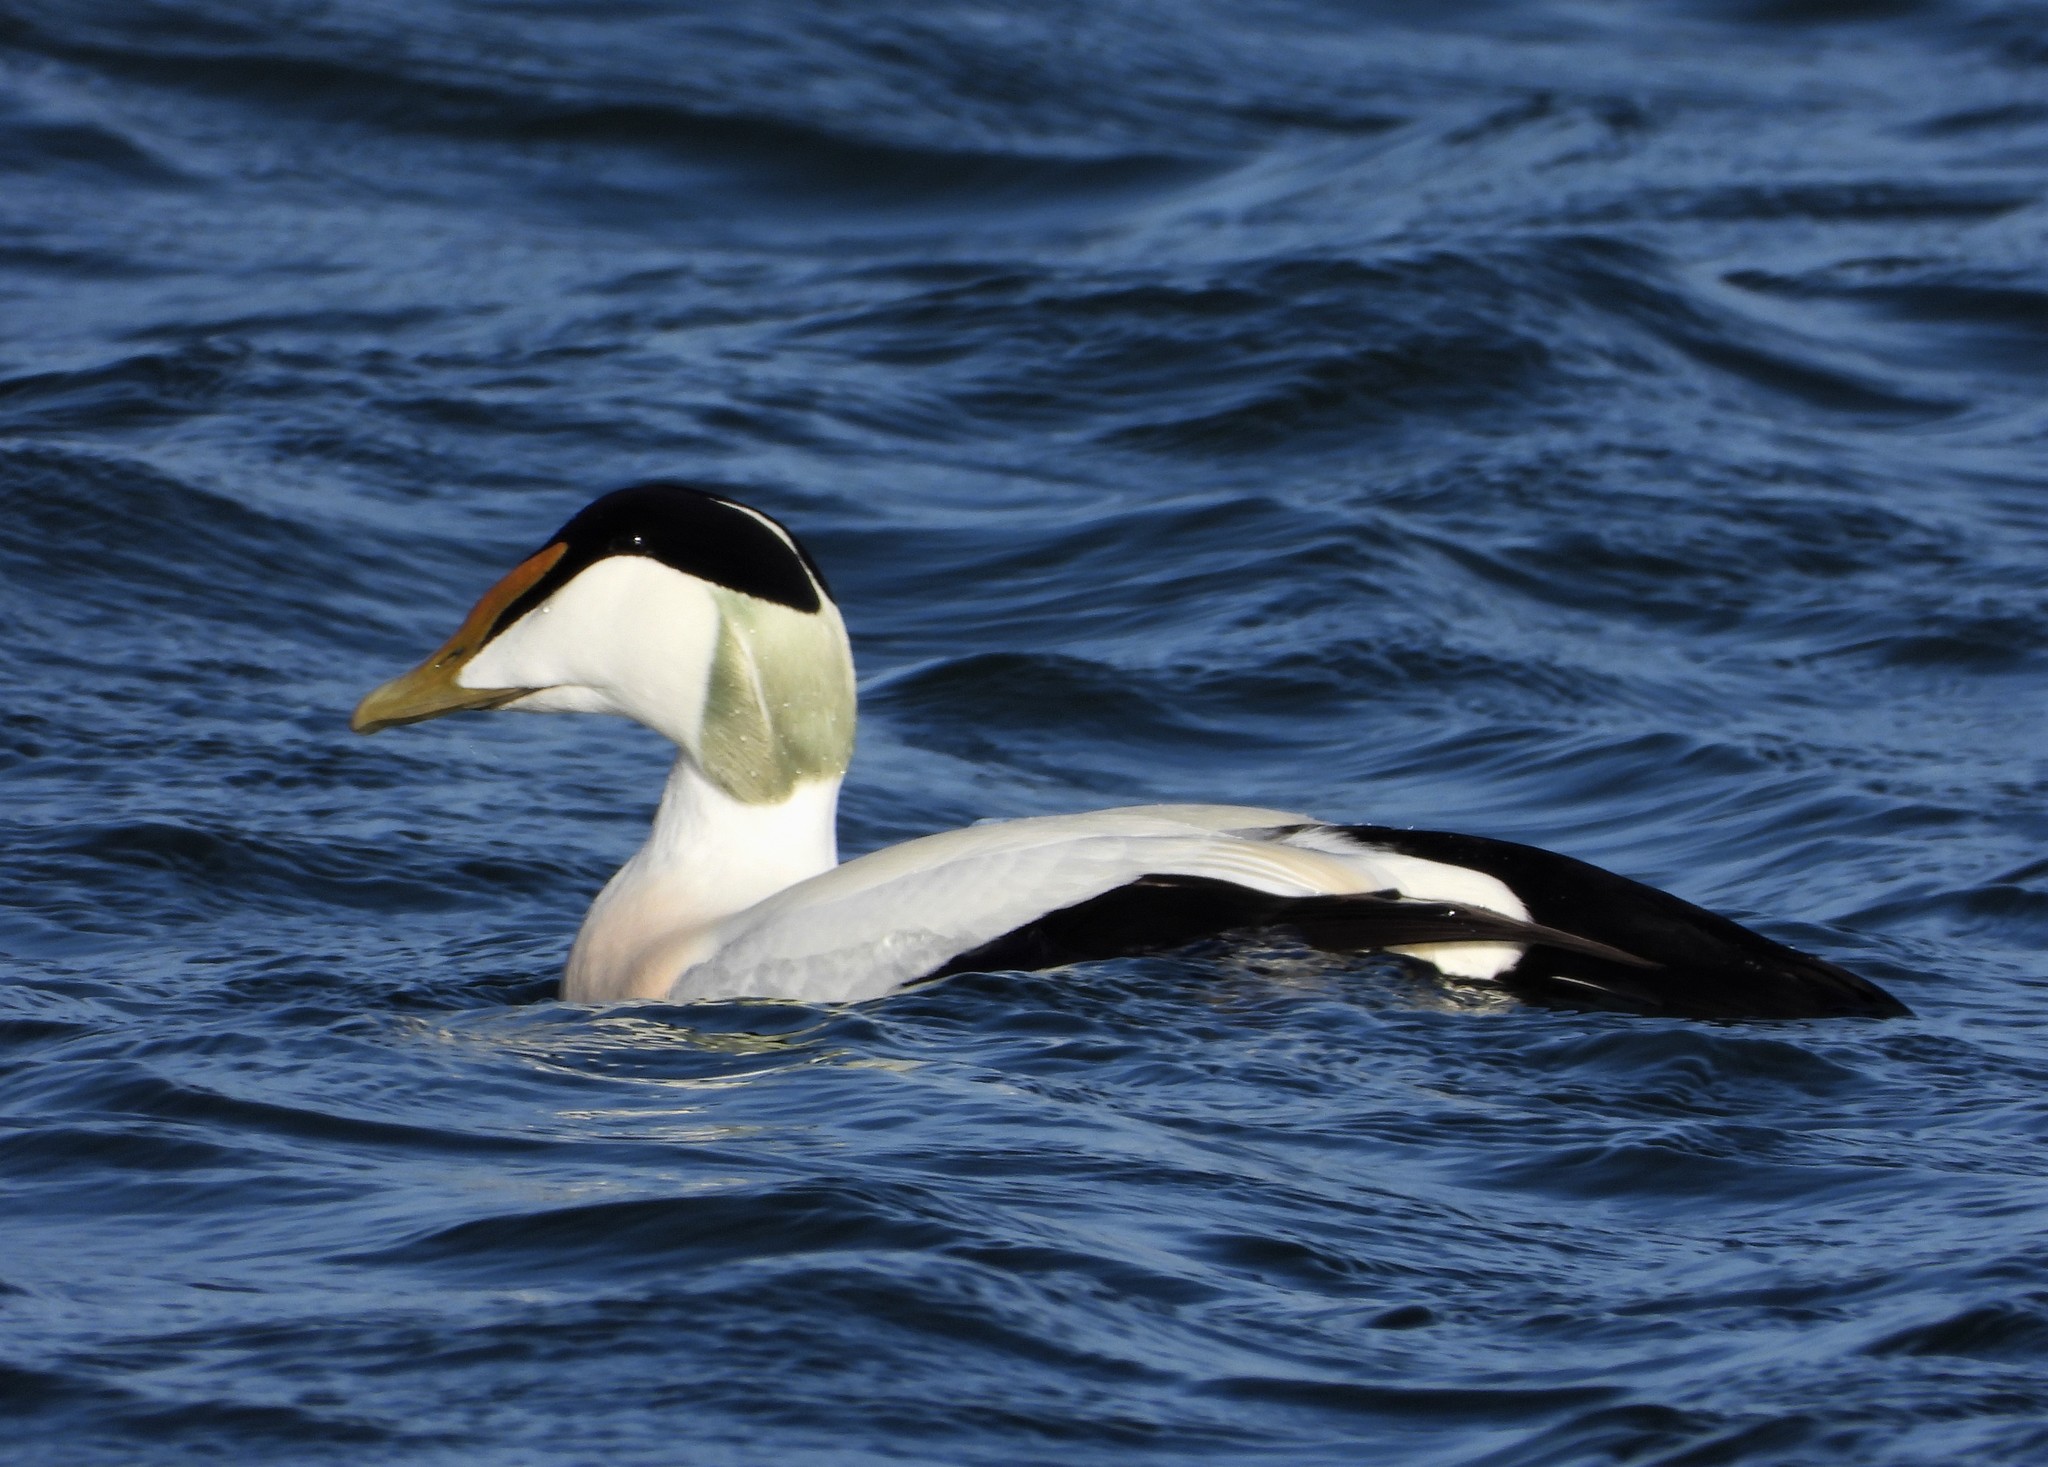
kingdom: Animalia
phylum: Chordata
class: Aves
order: Anseriformes
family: Anatidae
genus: Somateria
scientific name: Somateria mollissima
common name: Common eider
